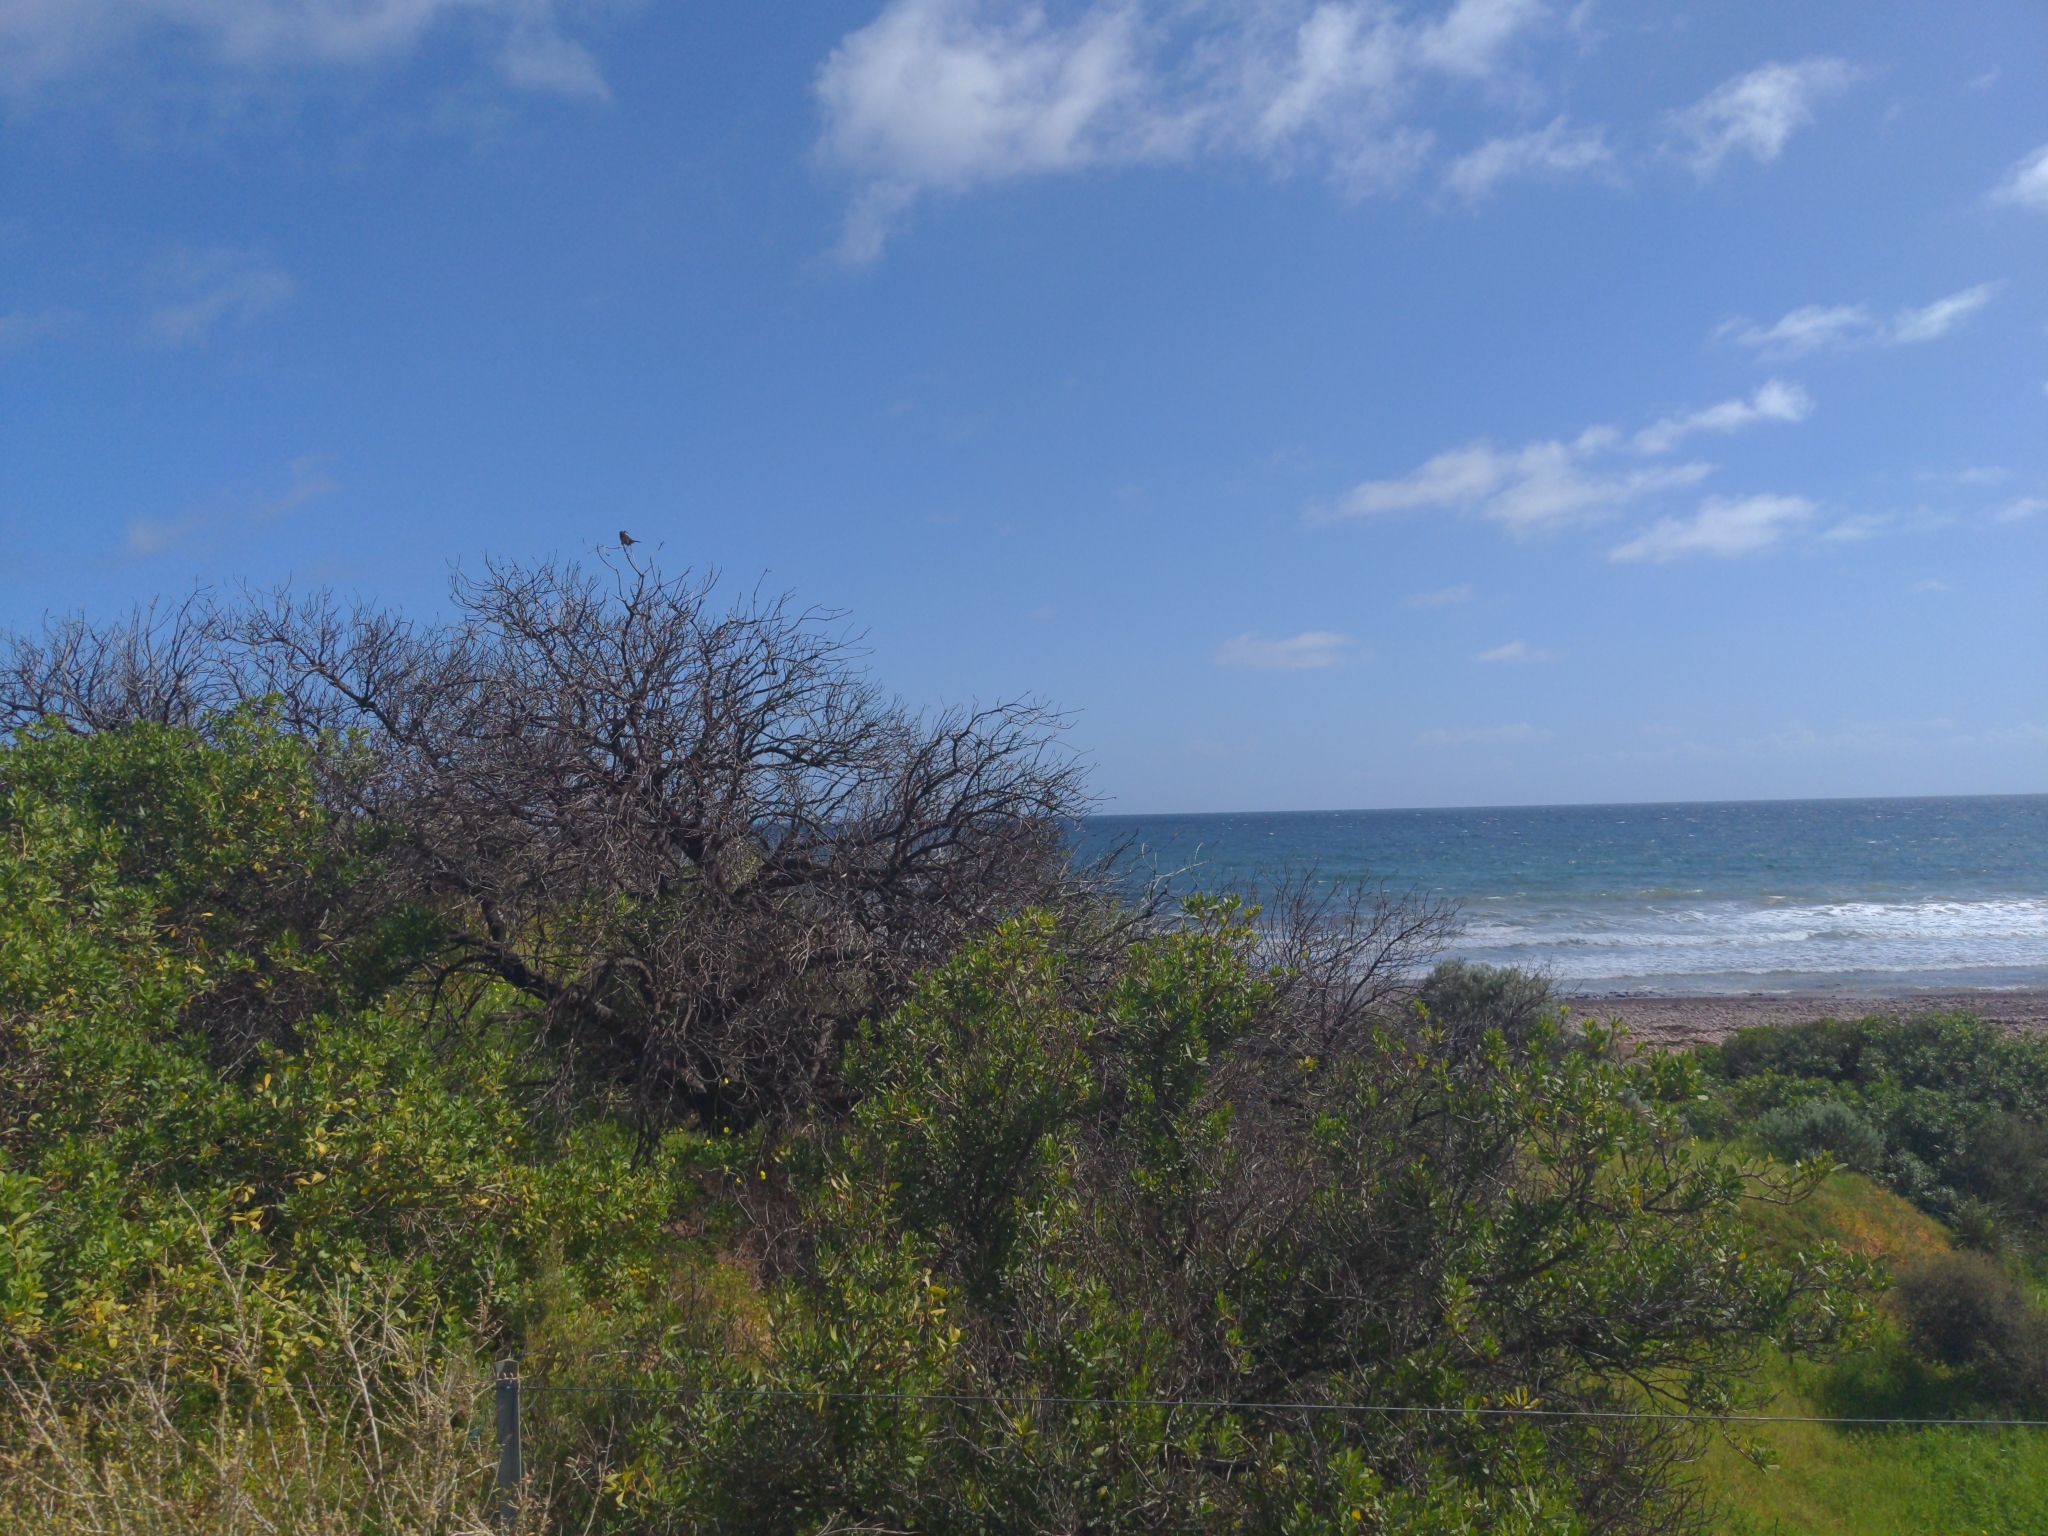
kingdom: Animalia
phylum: Chordata
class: Aves
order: Passeriformes
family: Meliphagidae
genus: Phylidonyris
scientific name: Phylidonyris novaehollandiae
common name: New holland honeyeater
